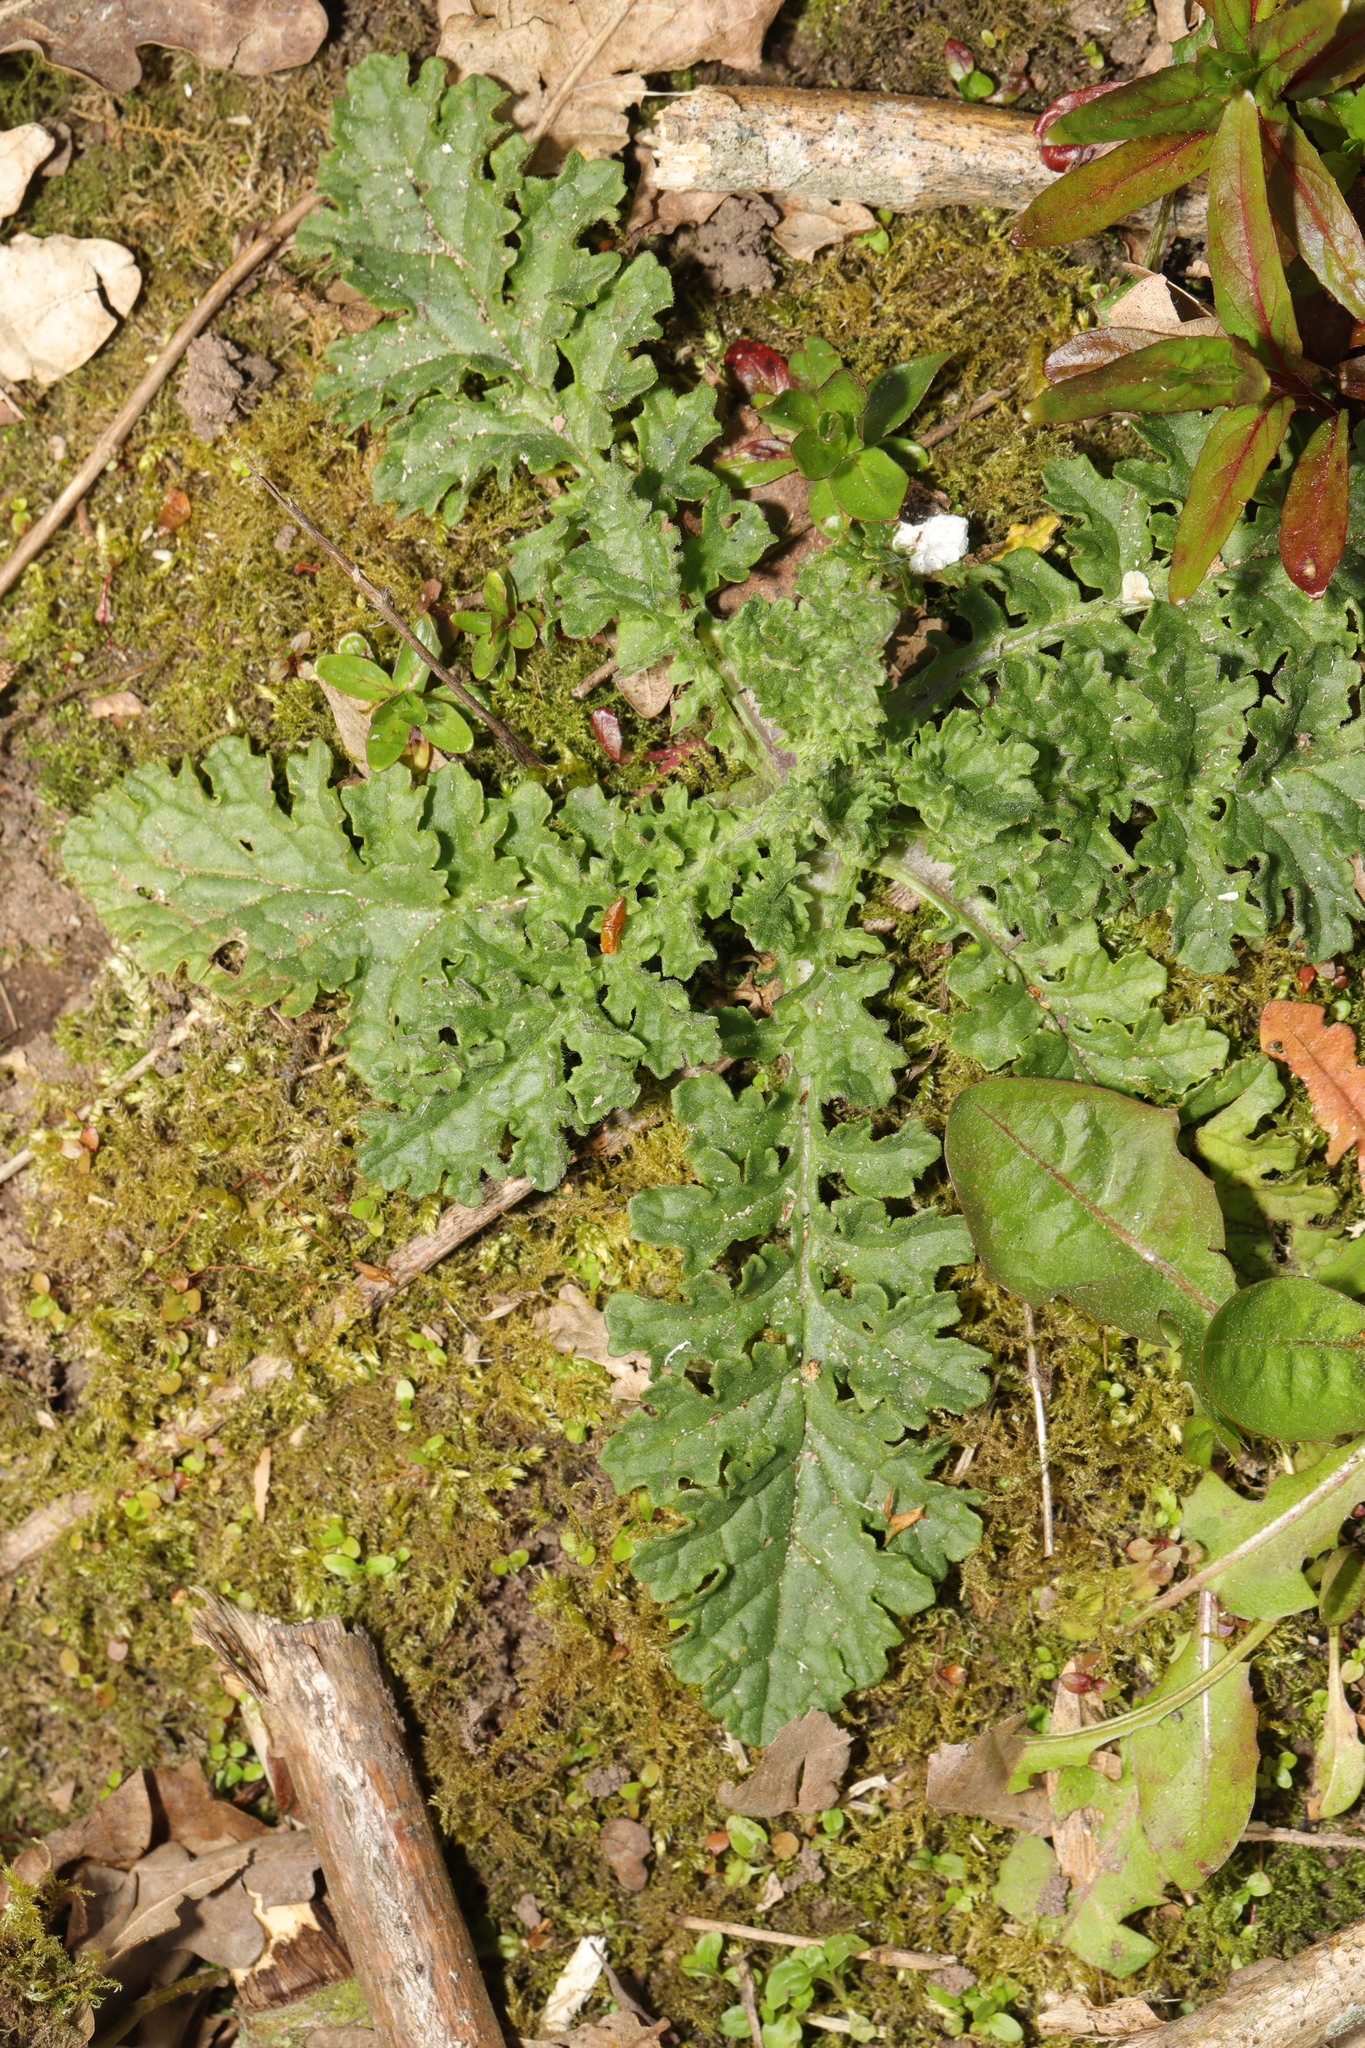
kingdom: Plantae
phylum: Tracheophyta
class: Magnoliopsida
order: Asterales
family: Asteraceae
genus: Jacobaea
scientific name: Jacobaea vulgaris
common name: Stinking willie
